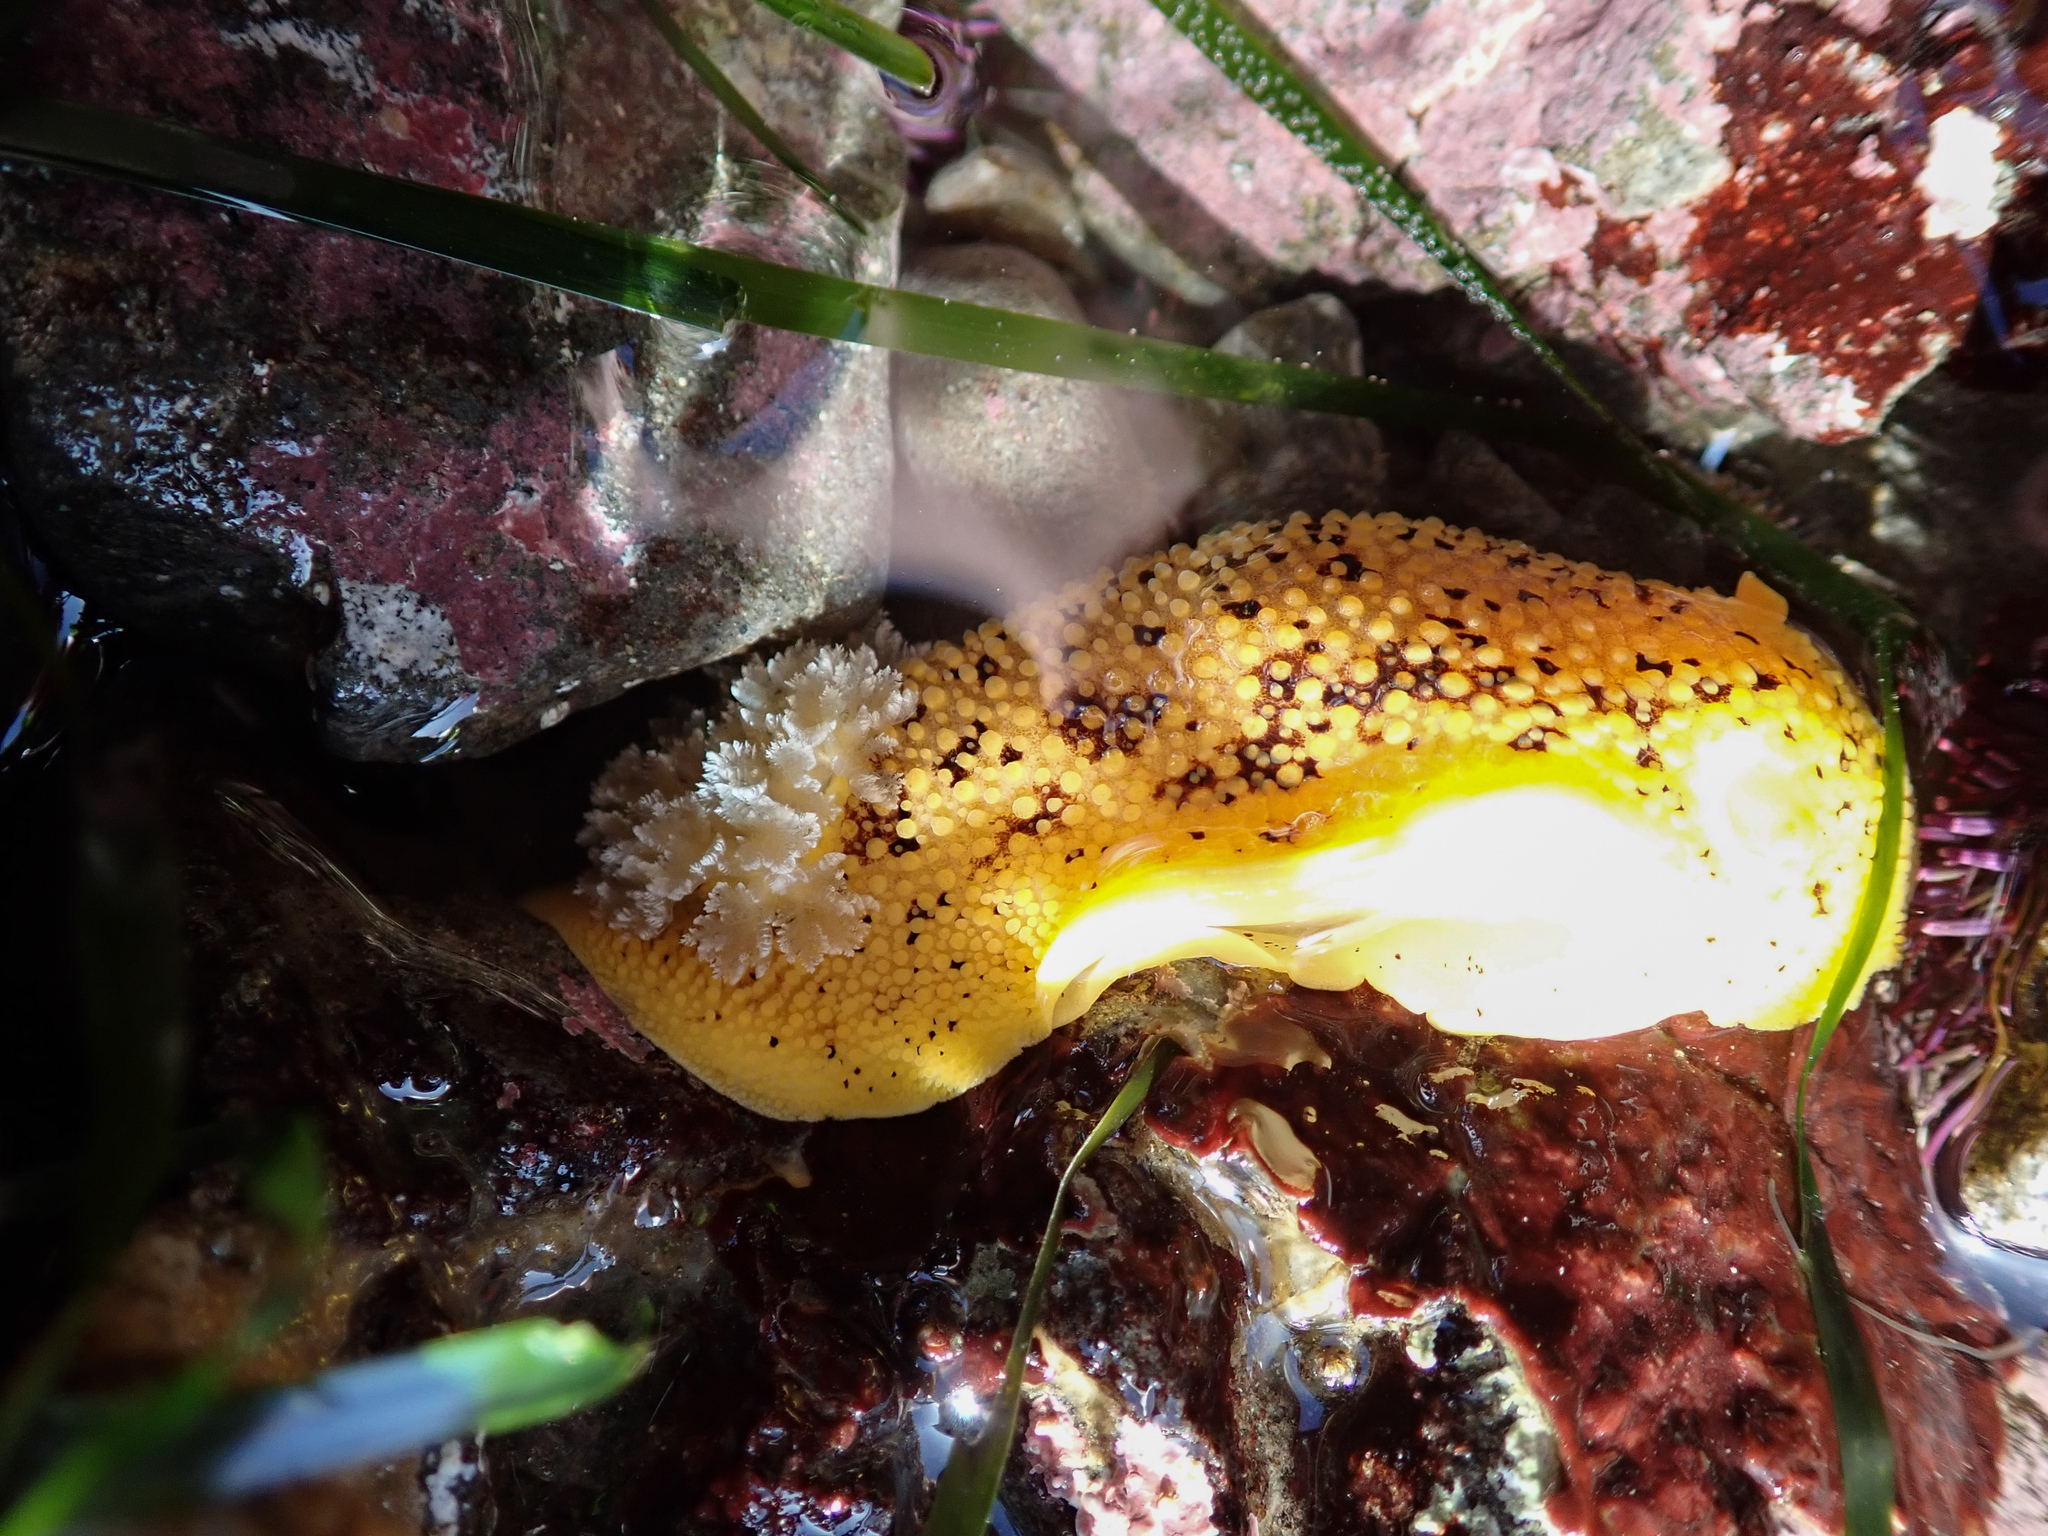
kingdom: Animalia
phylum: Mollusca
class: Gastropoda
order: Nudibranchia
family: Discodorididae
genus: Peltodoris
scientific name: Peltodoris nobilis
